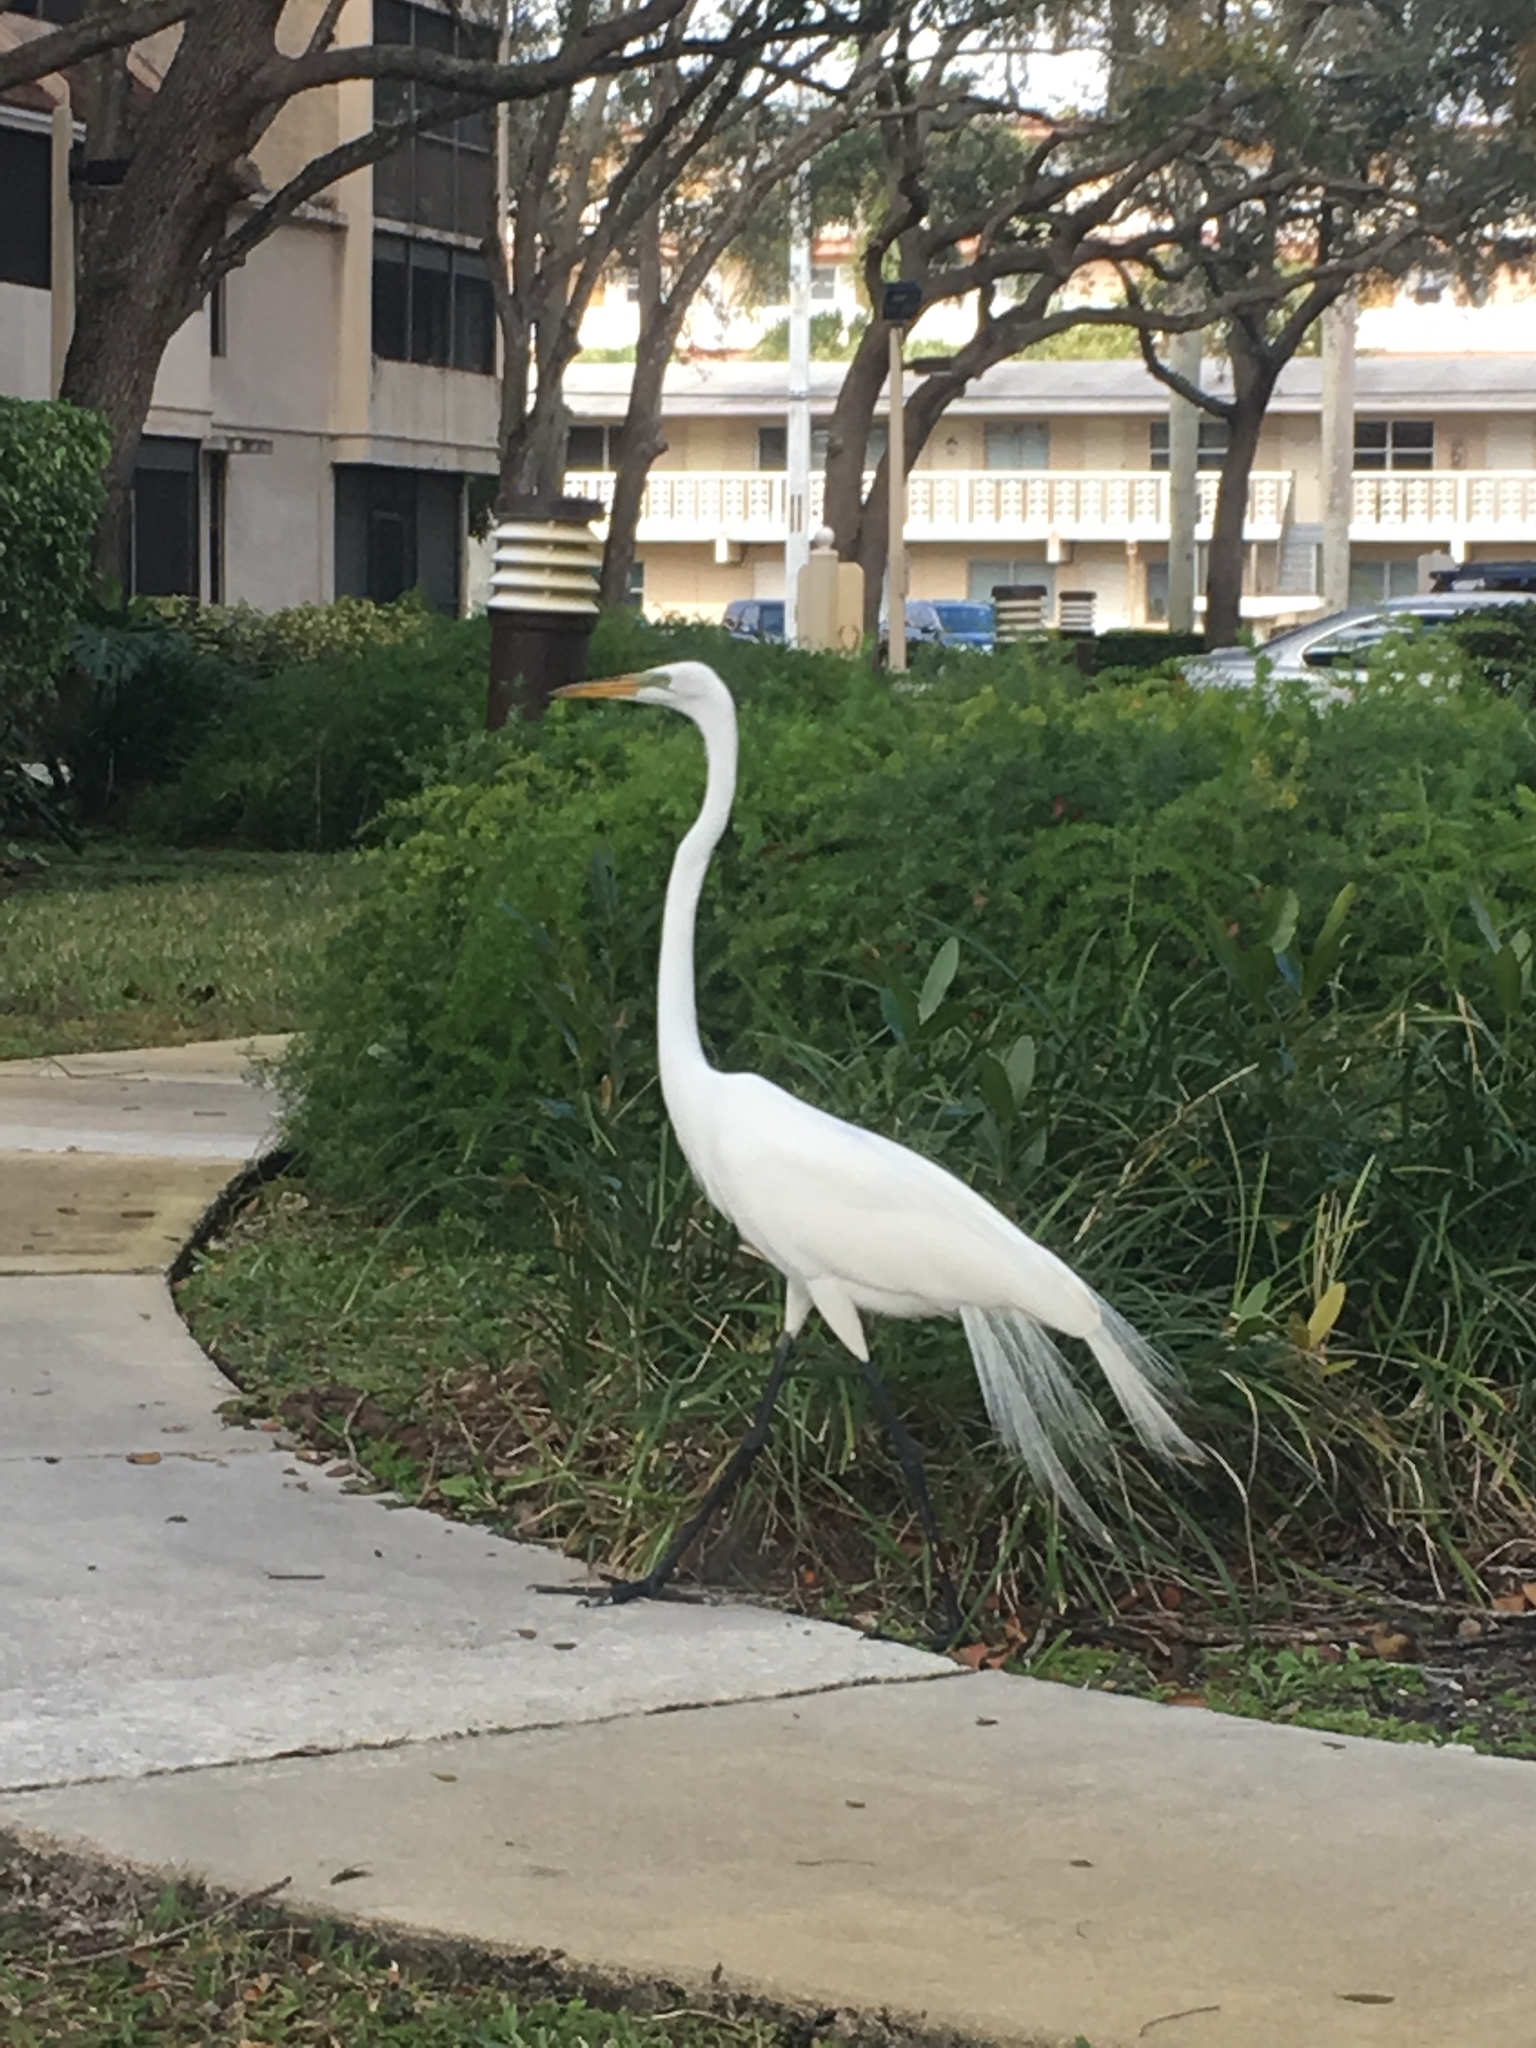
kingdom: Animalia
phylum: Chordata
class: Aves
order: Pelecaniformes
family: Ardeidae
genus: Ardea
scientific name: Ardea alba
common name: Great egret
